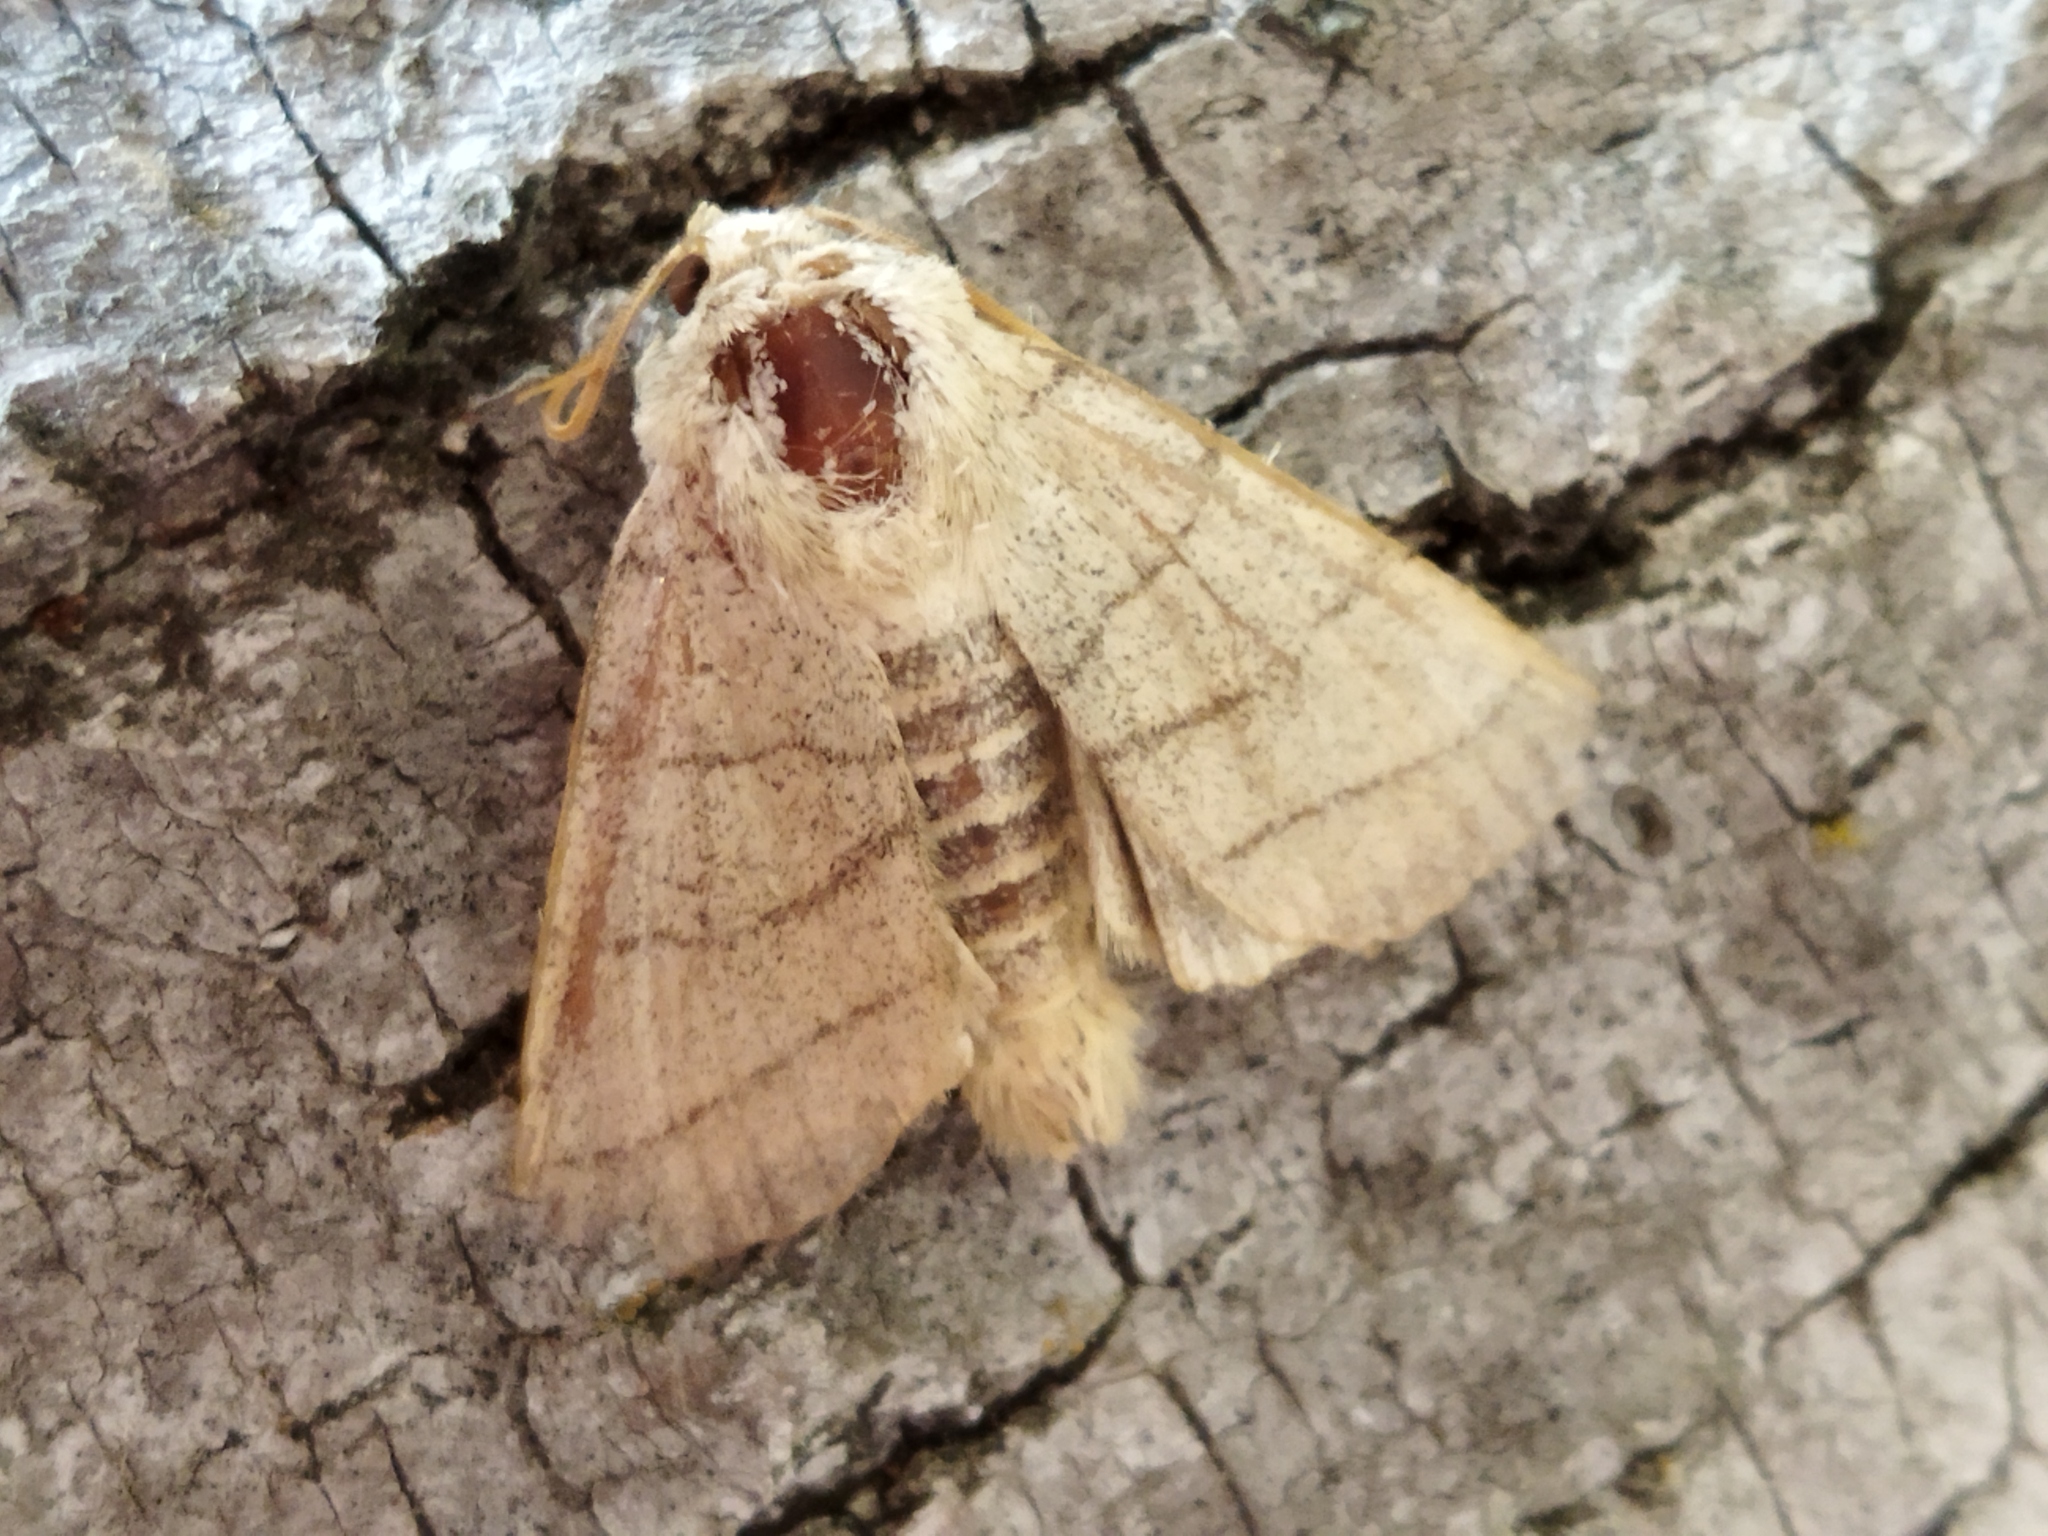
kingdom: Animalia
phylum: Arthropoda
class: Insecta
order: Lepidoptera
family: Noctuidae
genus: Charanyca
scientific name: Charanyca trigrammica
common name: Treble lines
